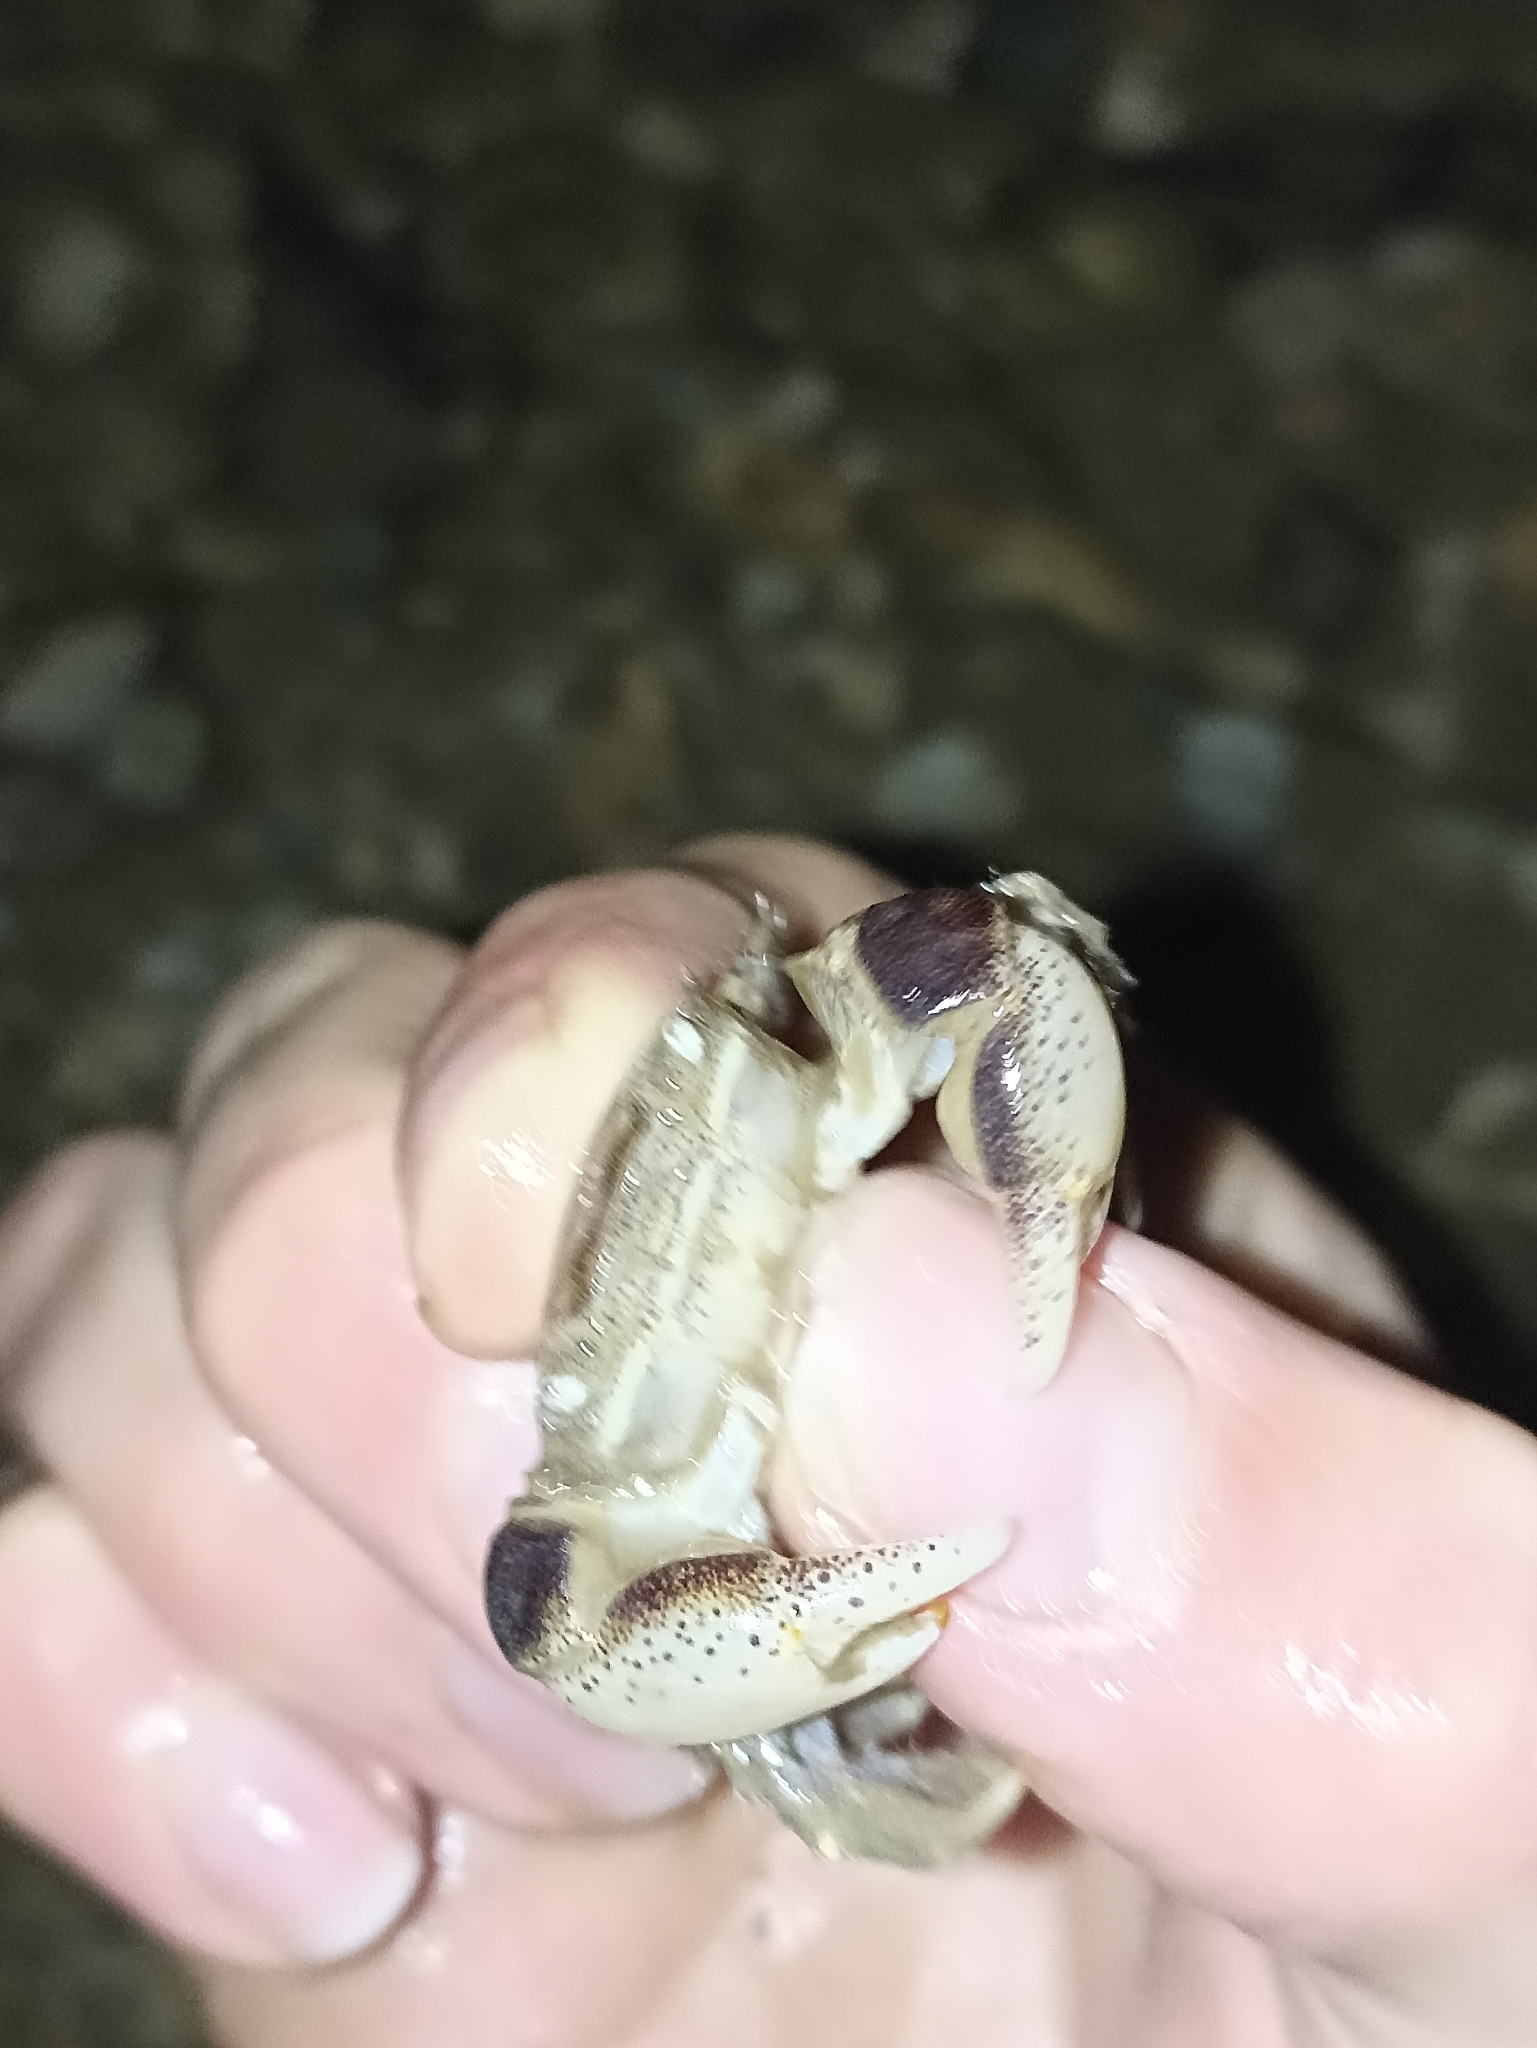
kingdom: Animalia
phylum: Arthropoda
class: Malacostraca
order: Decapoda
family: Varunidae
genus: Hemigrapsus
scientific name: Hemigrapsus crenulatus
